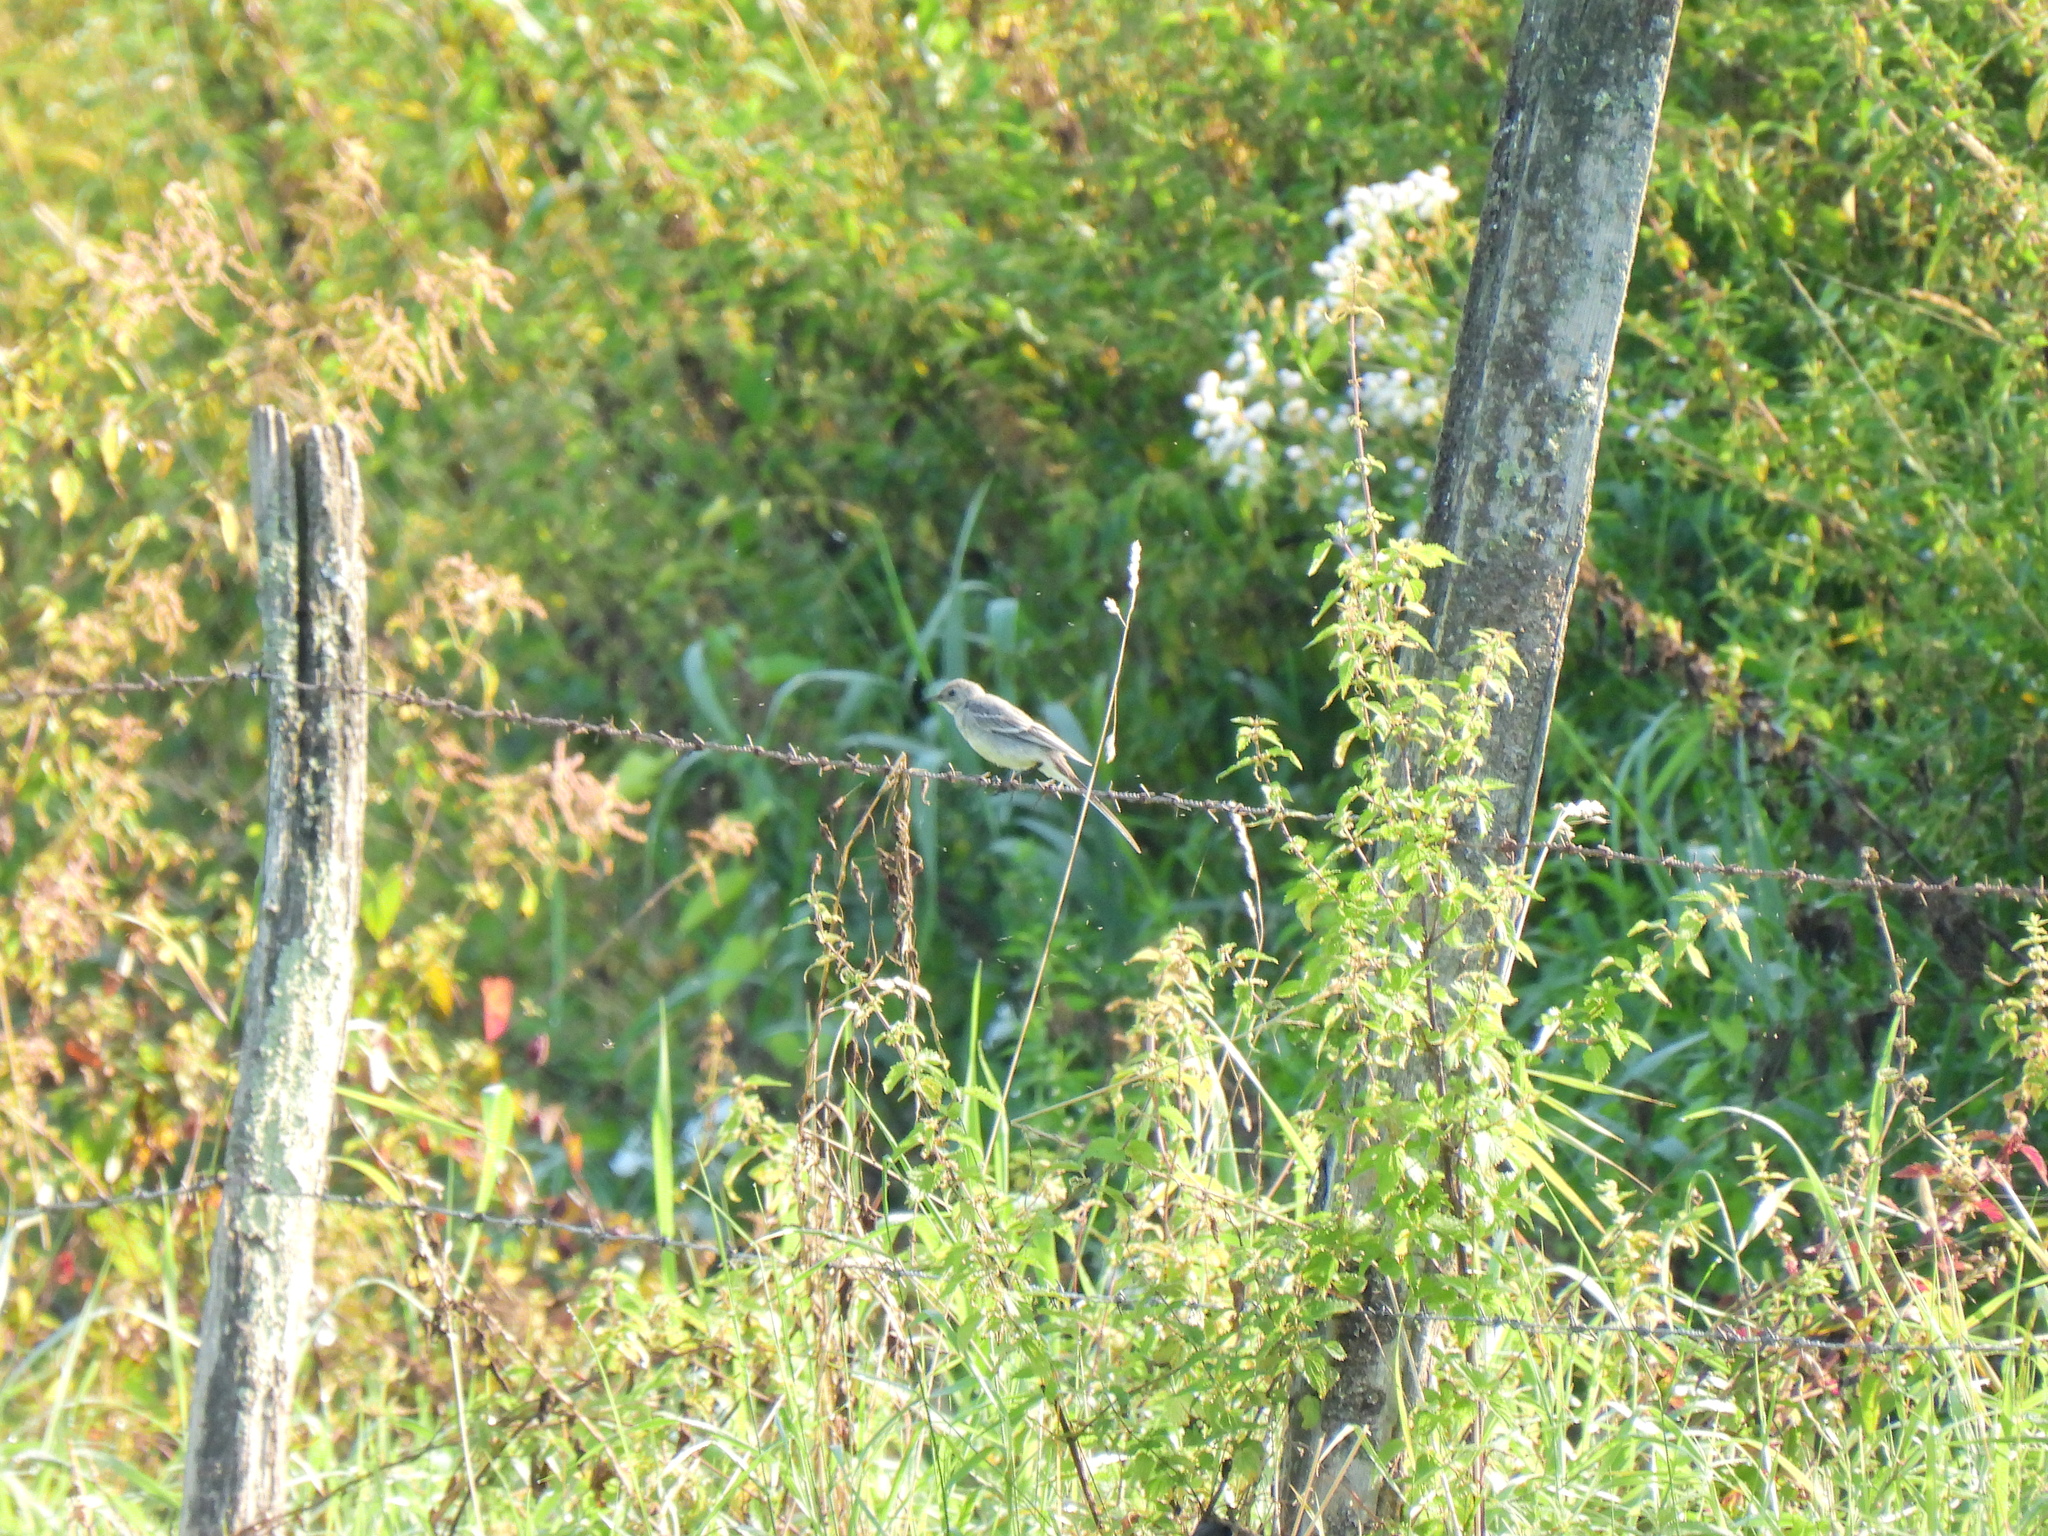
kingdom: Animalia
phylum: Chordata
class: Aves
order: Passeriformes
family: Motacillidae
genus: Motacilla
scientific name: Motacilla cinerea
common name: Grey wagtail
